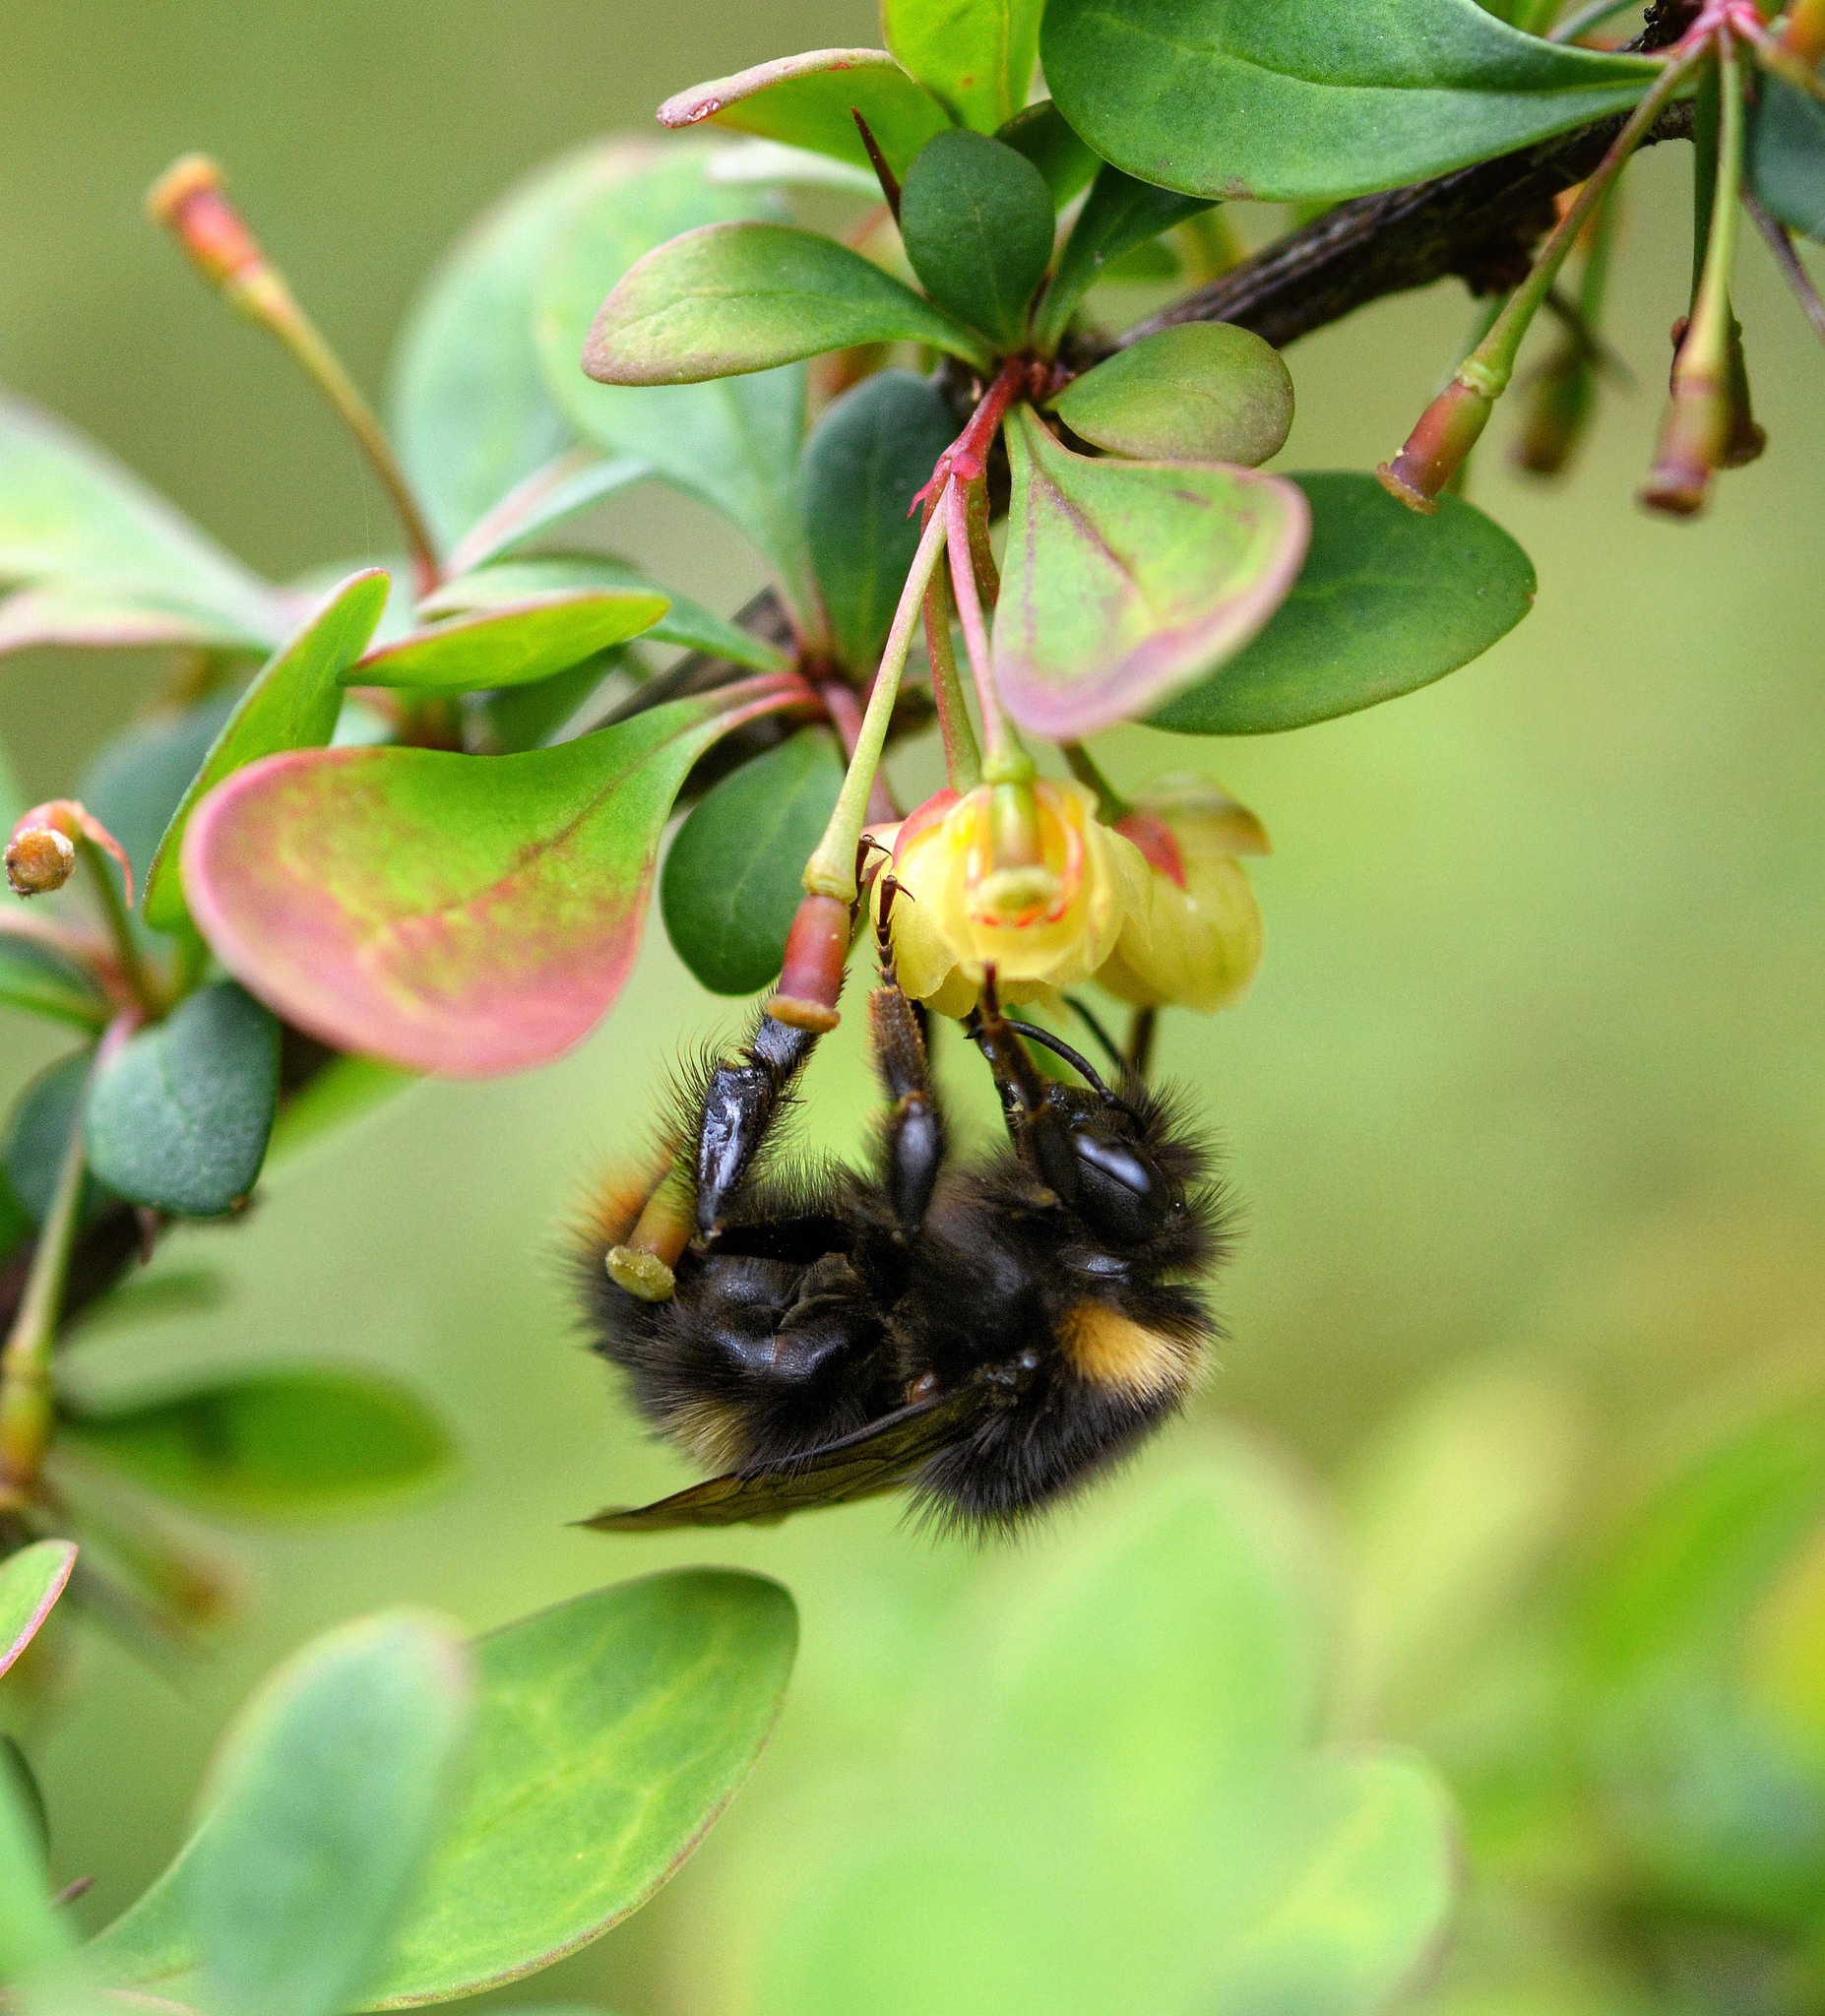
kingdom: Animalia
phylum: Arthropoda
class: Insecta
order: Hymenoptera
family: Apidae
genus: Bombus
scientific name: Bombus pratorum
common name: Early humble-bee
